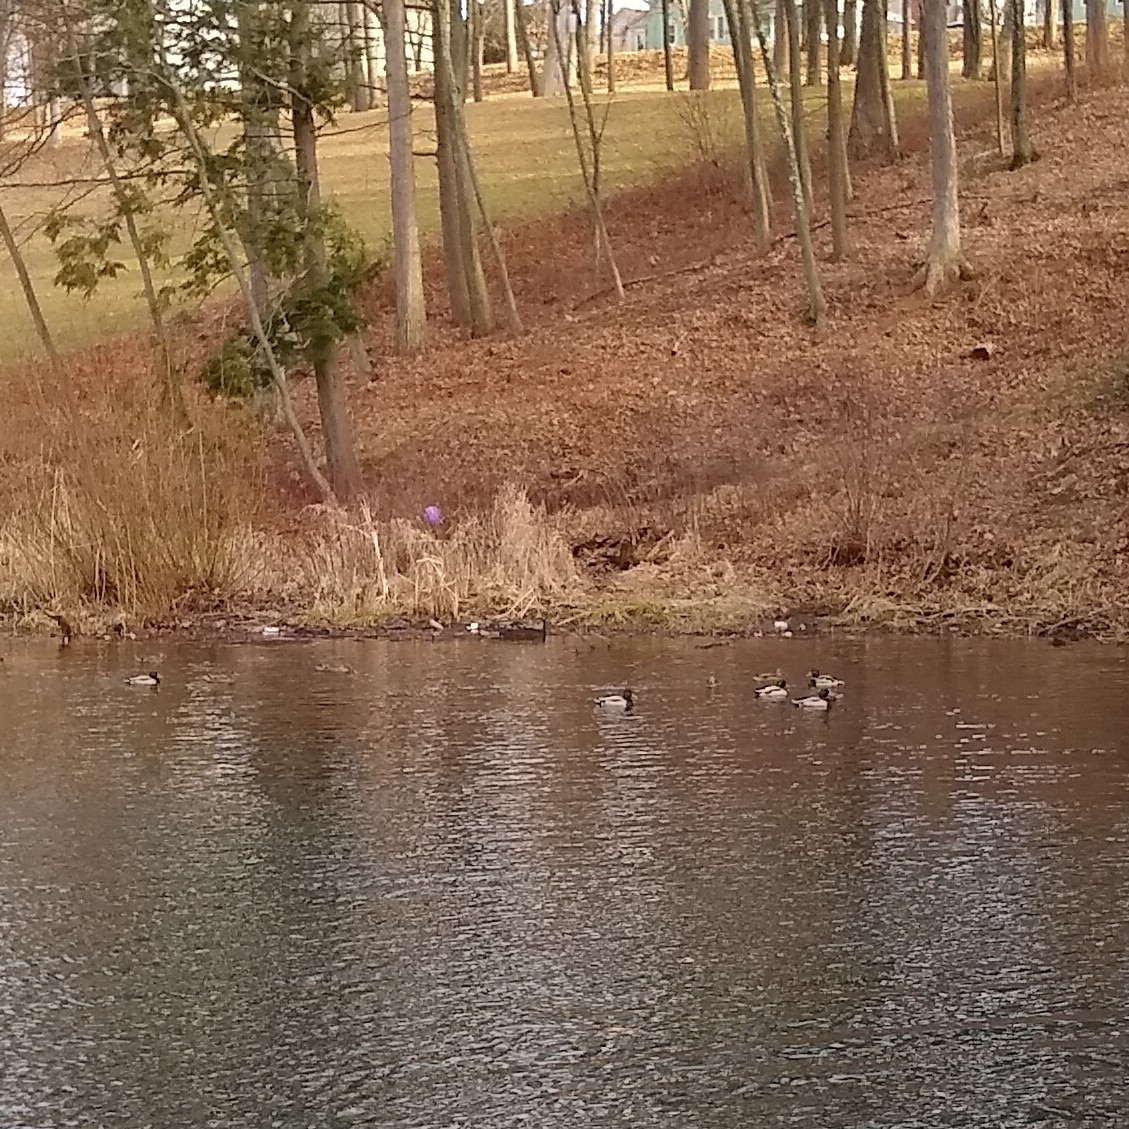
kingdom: Animalia
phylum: Chordata
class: Aves
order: Anseriformes
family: Anatidae
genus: Anas
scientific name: Anas platyrhynchos
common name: Mallard
